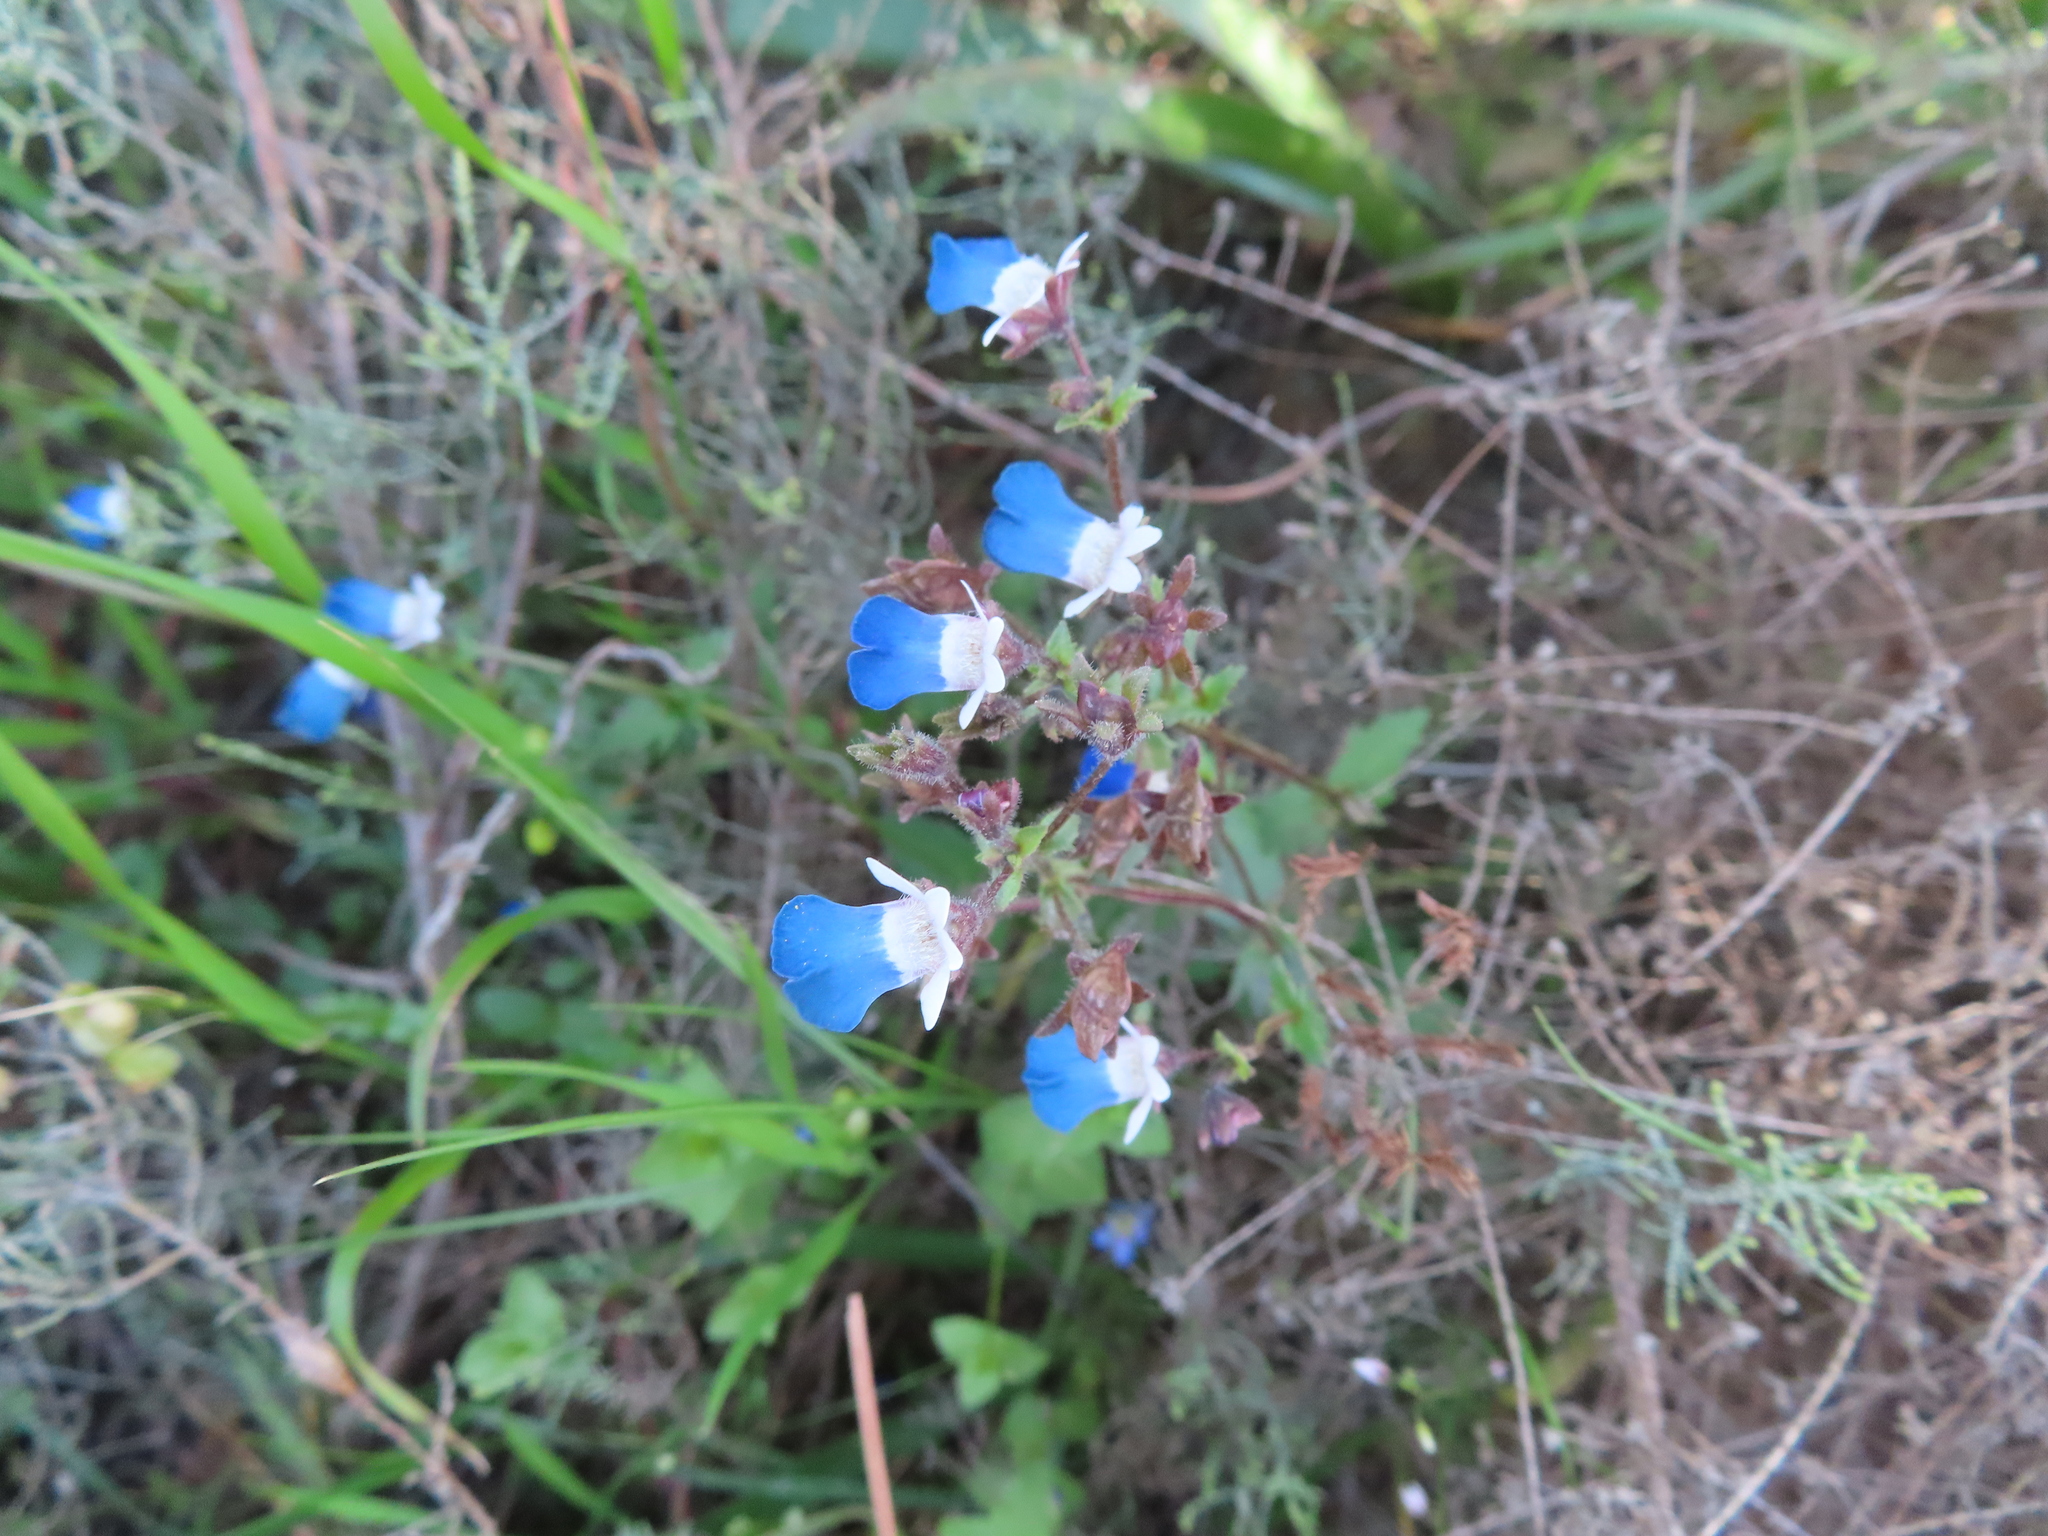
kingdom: Plantae
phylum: Tracheophyta
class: Magnoliopsida
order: Lamiales
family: Scrophulariaceae
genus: Nemesia
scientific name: Nemesia barbata
